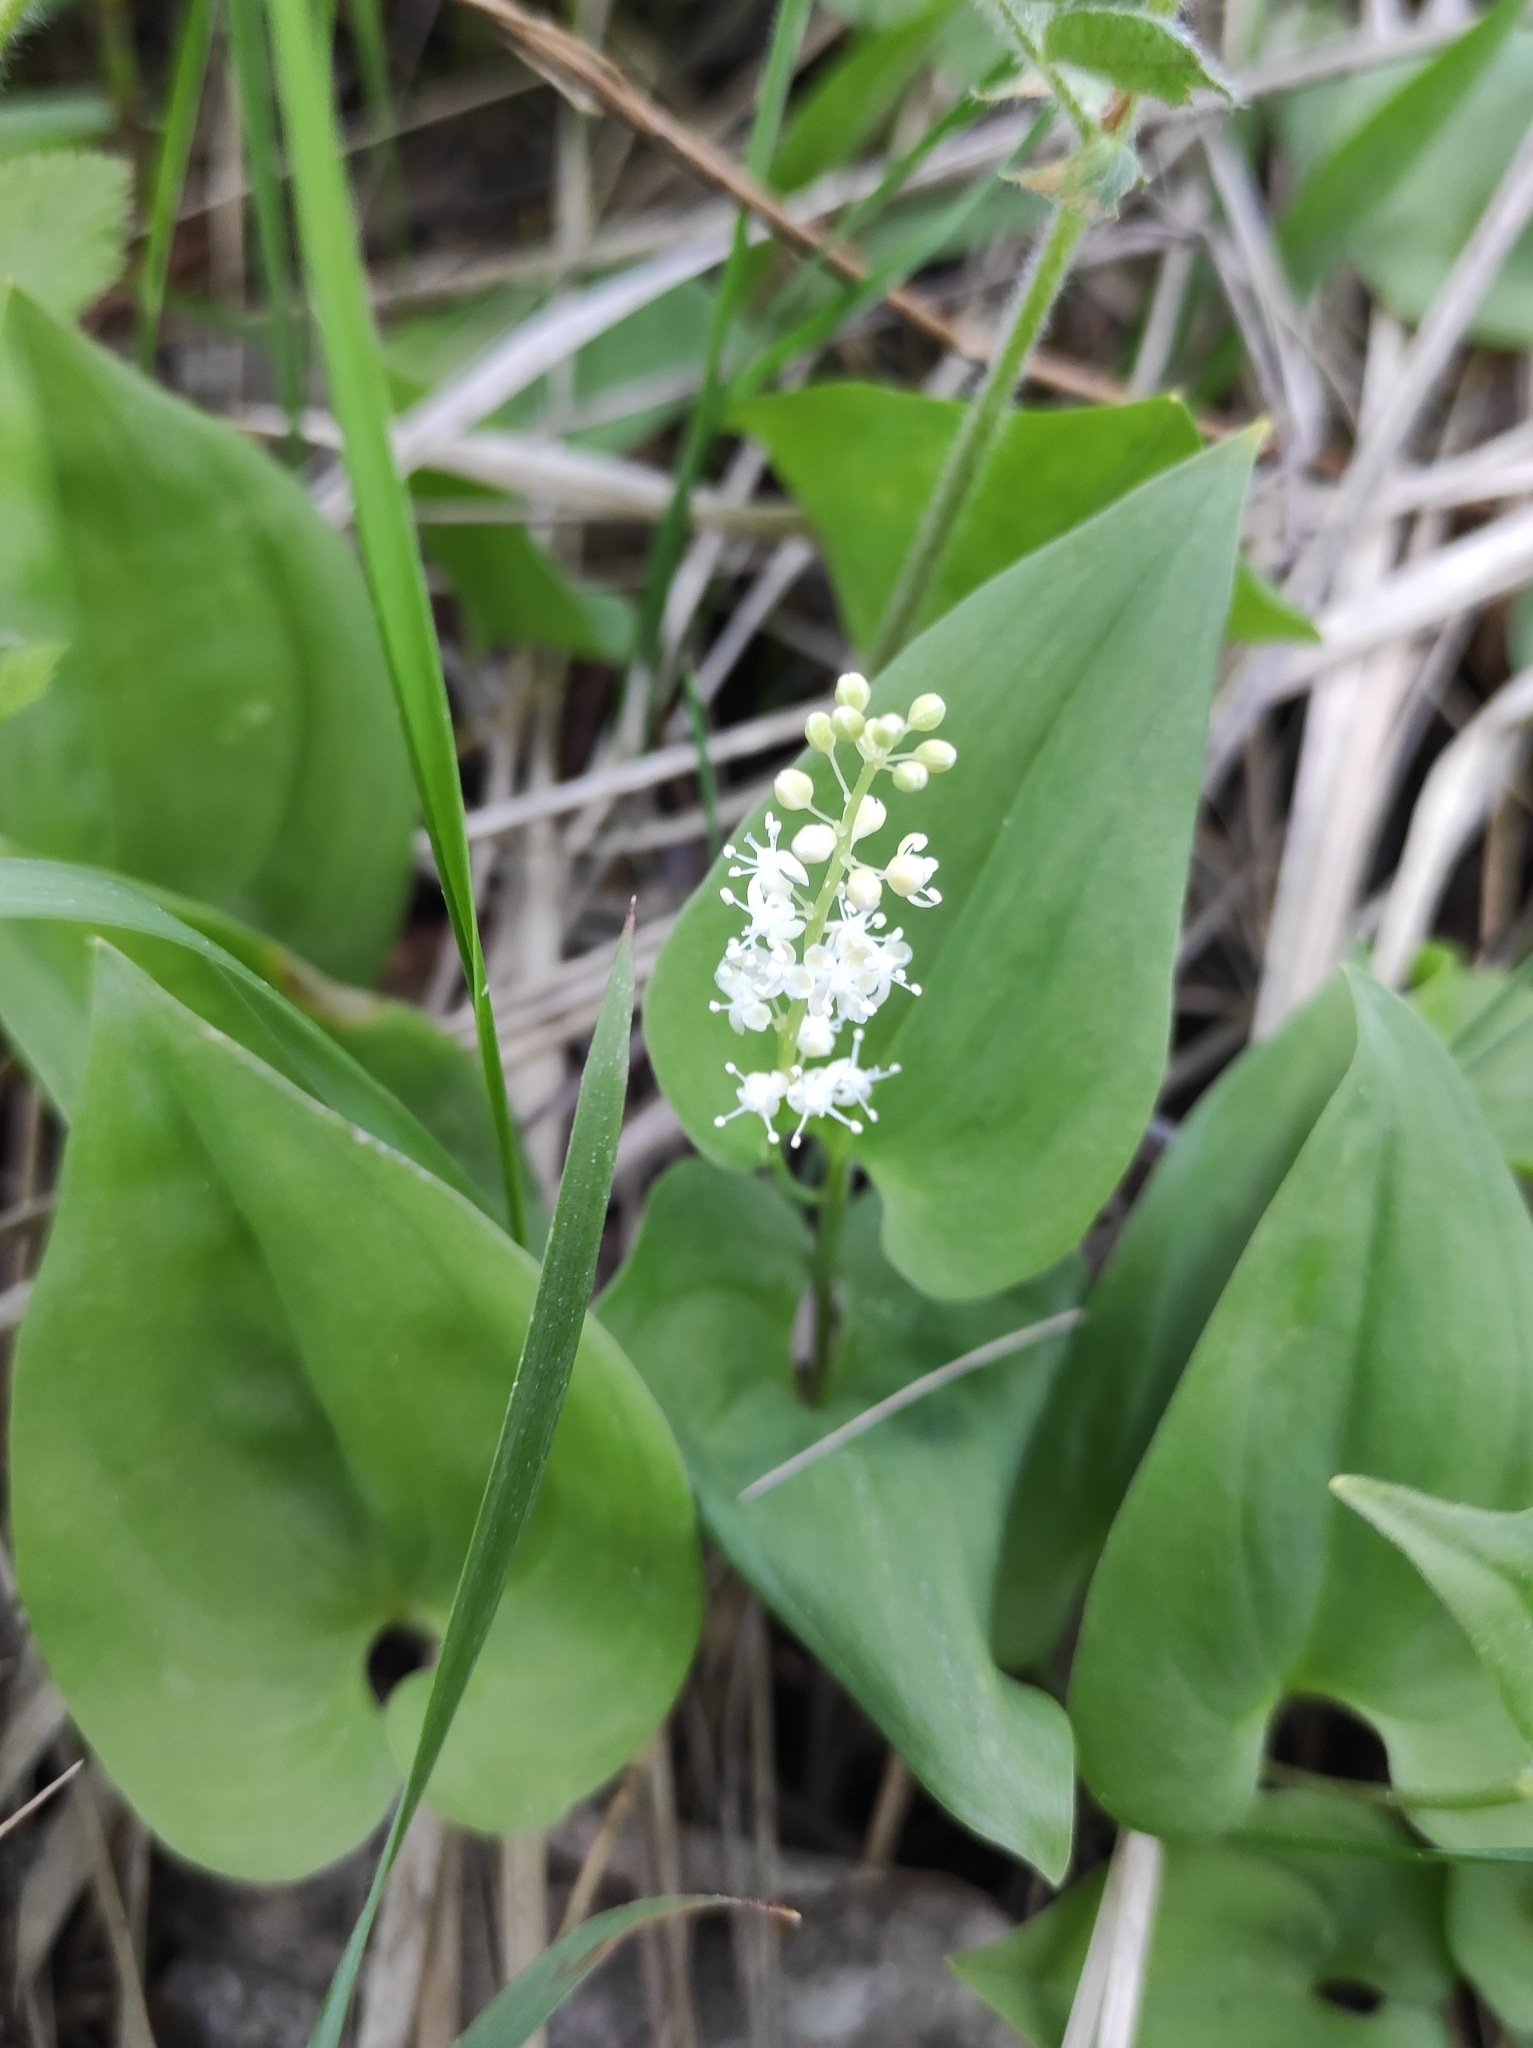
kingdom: Plantae
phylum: Tracheophyta
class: Liliopsida
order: Asparagales
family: Asparagaceae
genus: Maianthemum
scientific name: Maianthemum bifolium
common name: May lily
